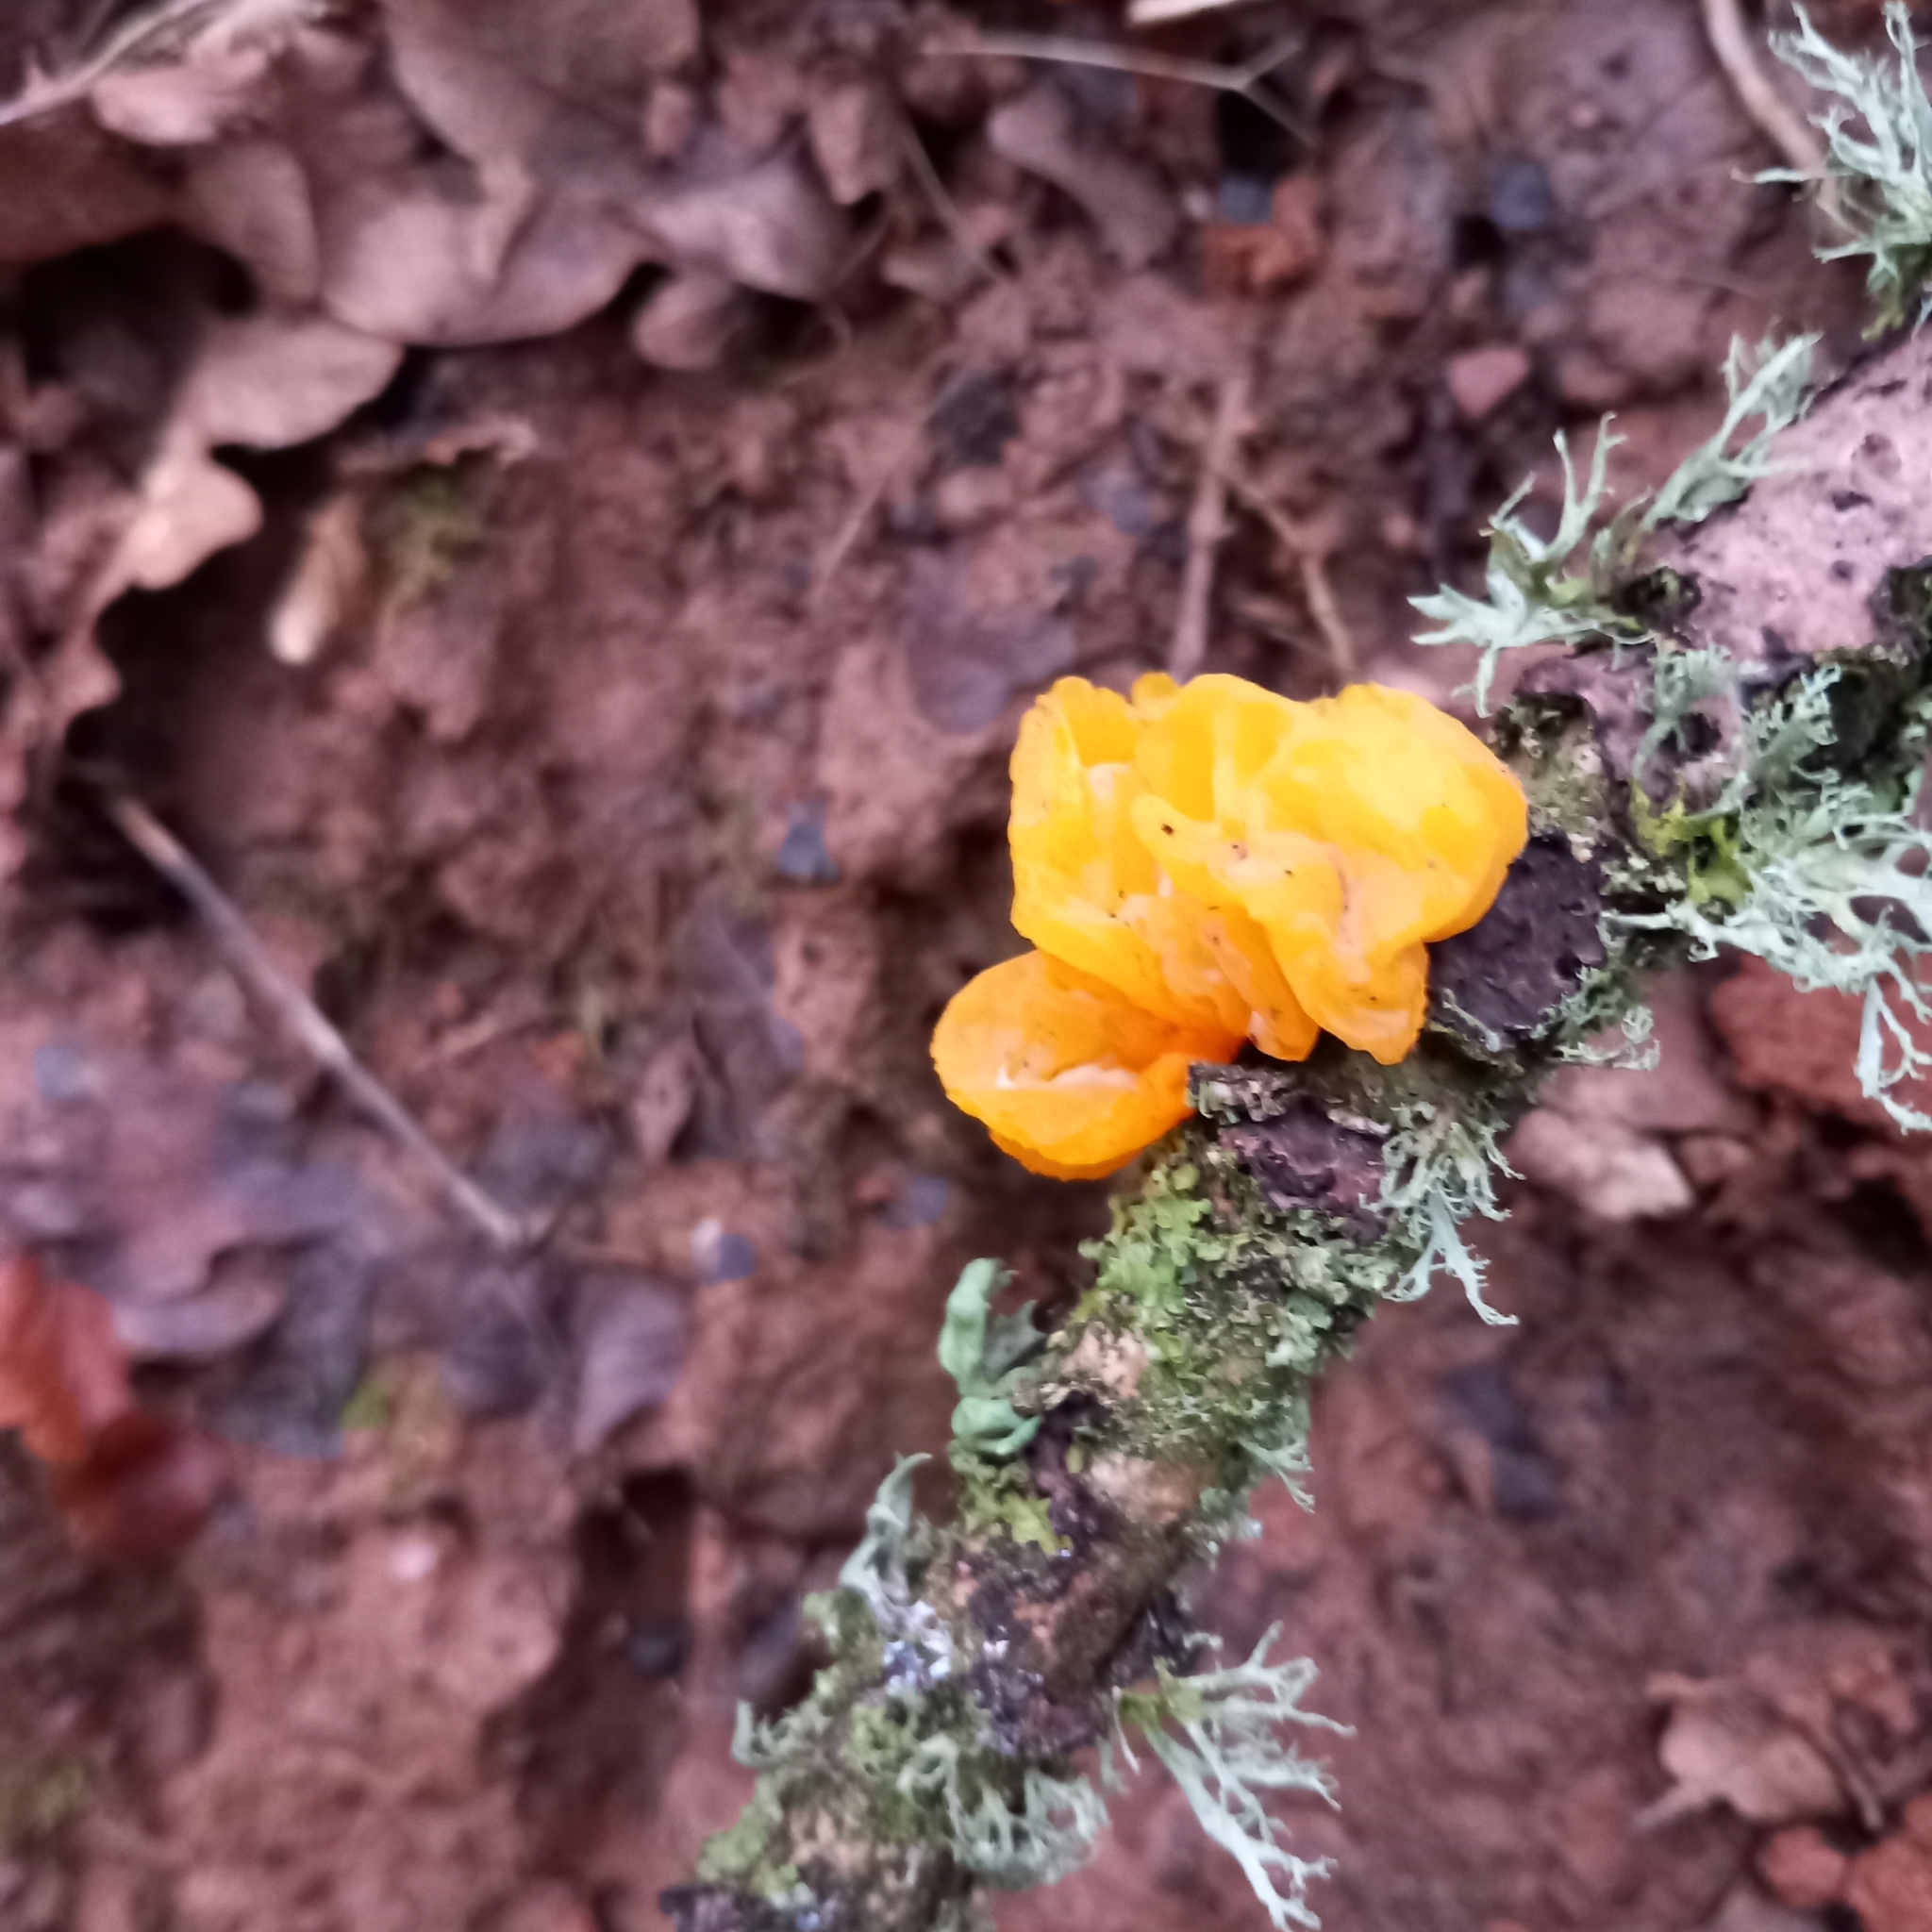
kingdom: Fungi
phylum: Basidiomycota
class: Tremellomycetes
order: Tremellales
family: Tremellaceae
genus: Tremella
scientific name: Tremella mesenterica
